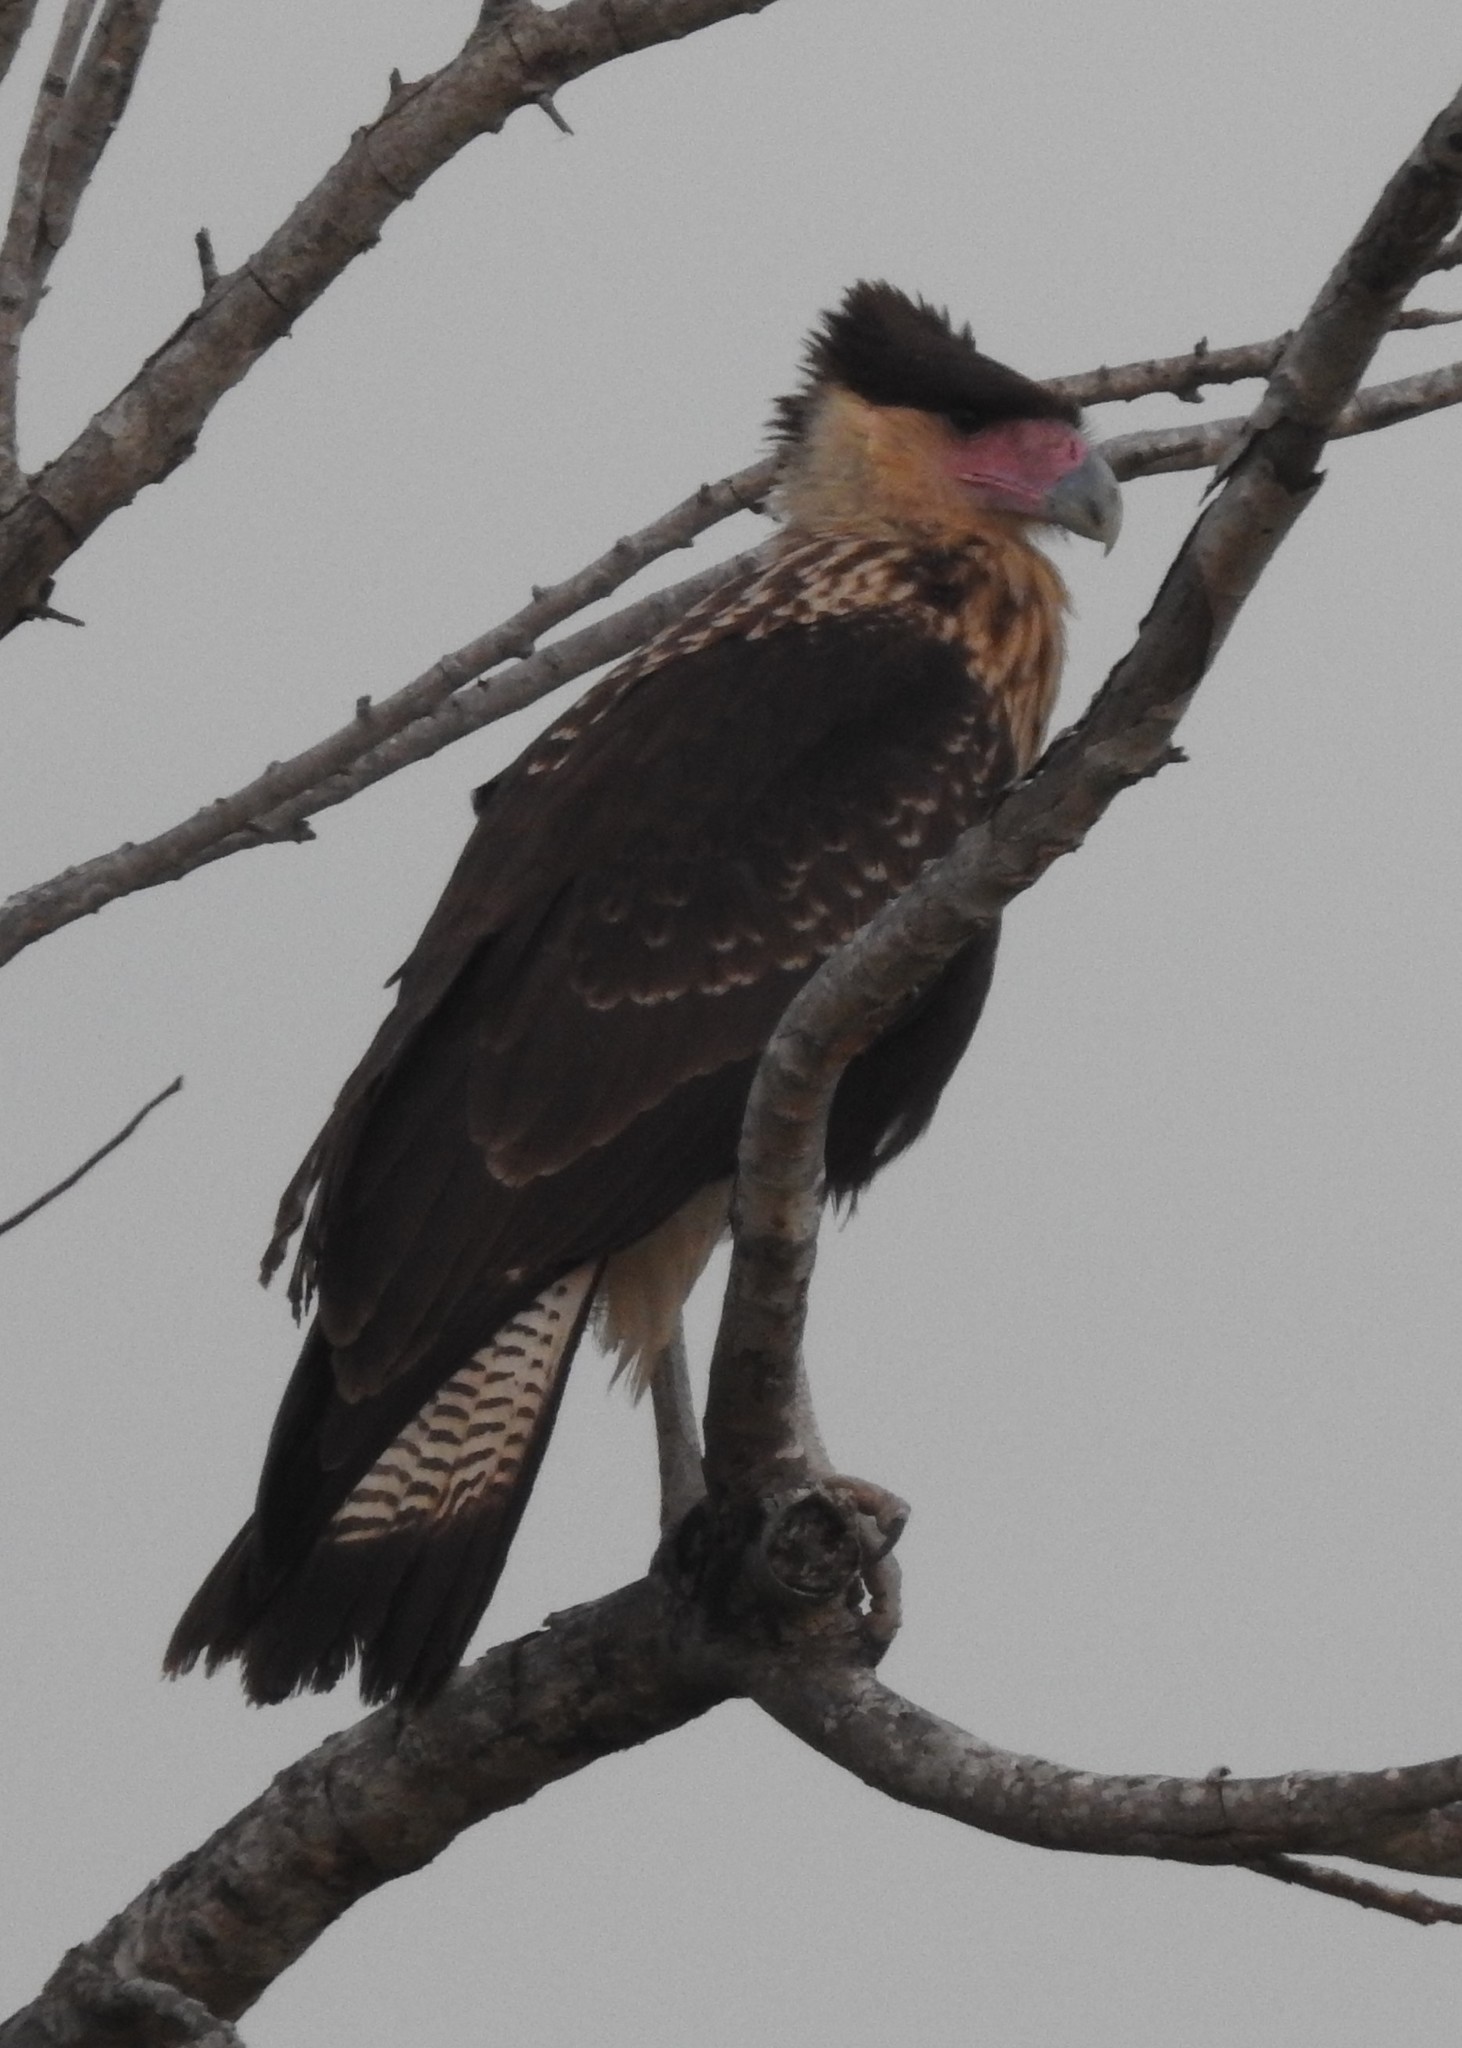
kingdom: Animalia
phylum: Chordata
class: Aves
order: Falconiformes
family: Falconidae
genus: Caracara
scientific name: Caracara plancus
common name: Southern caracara
